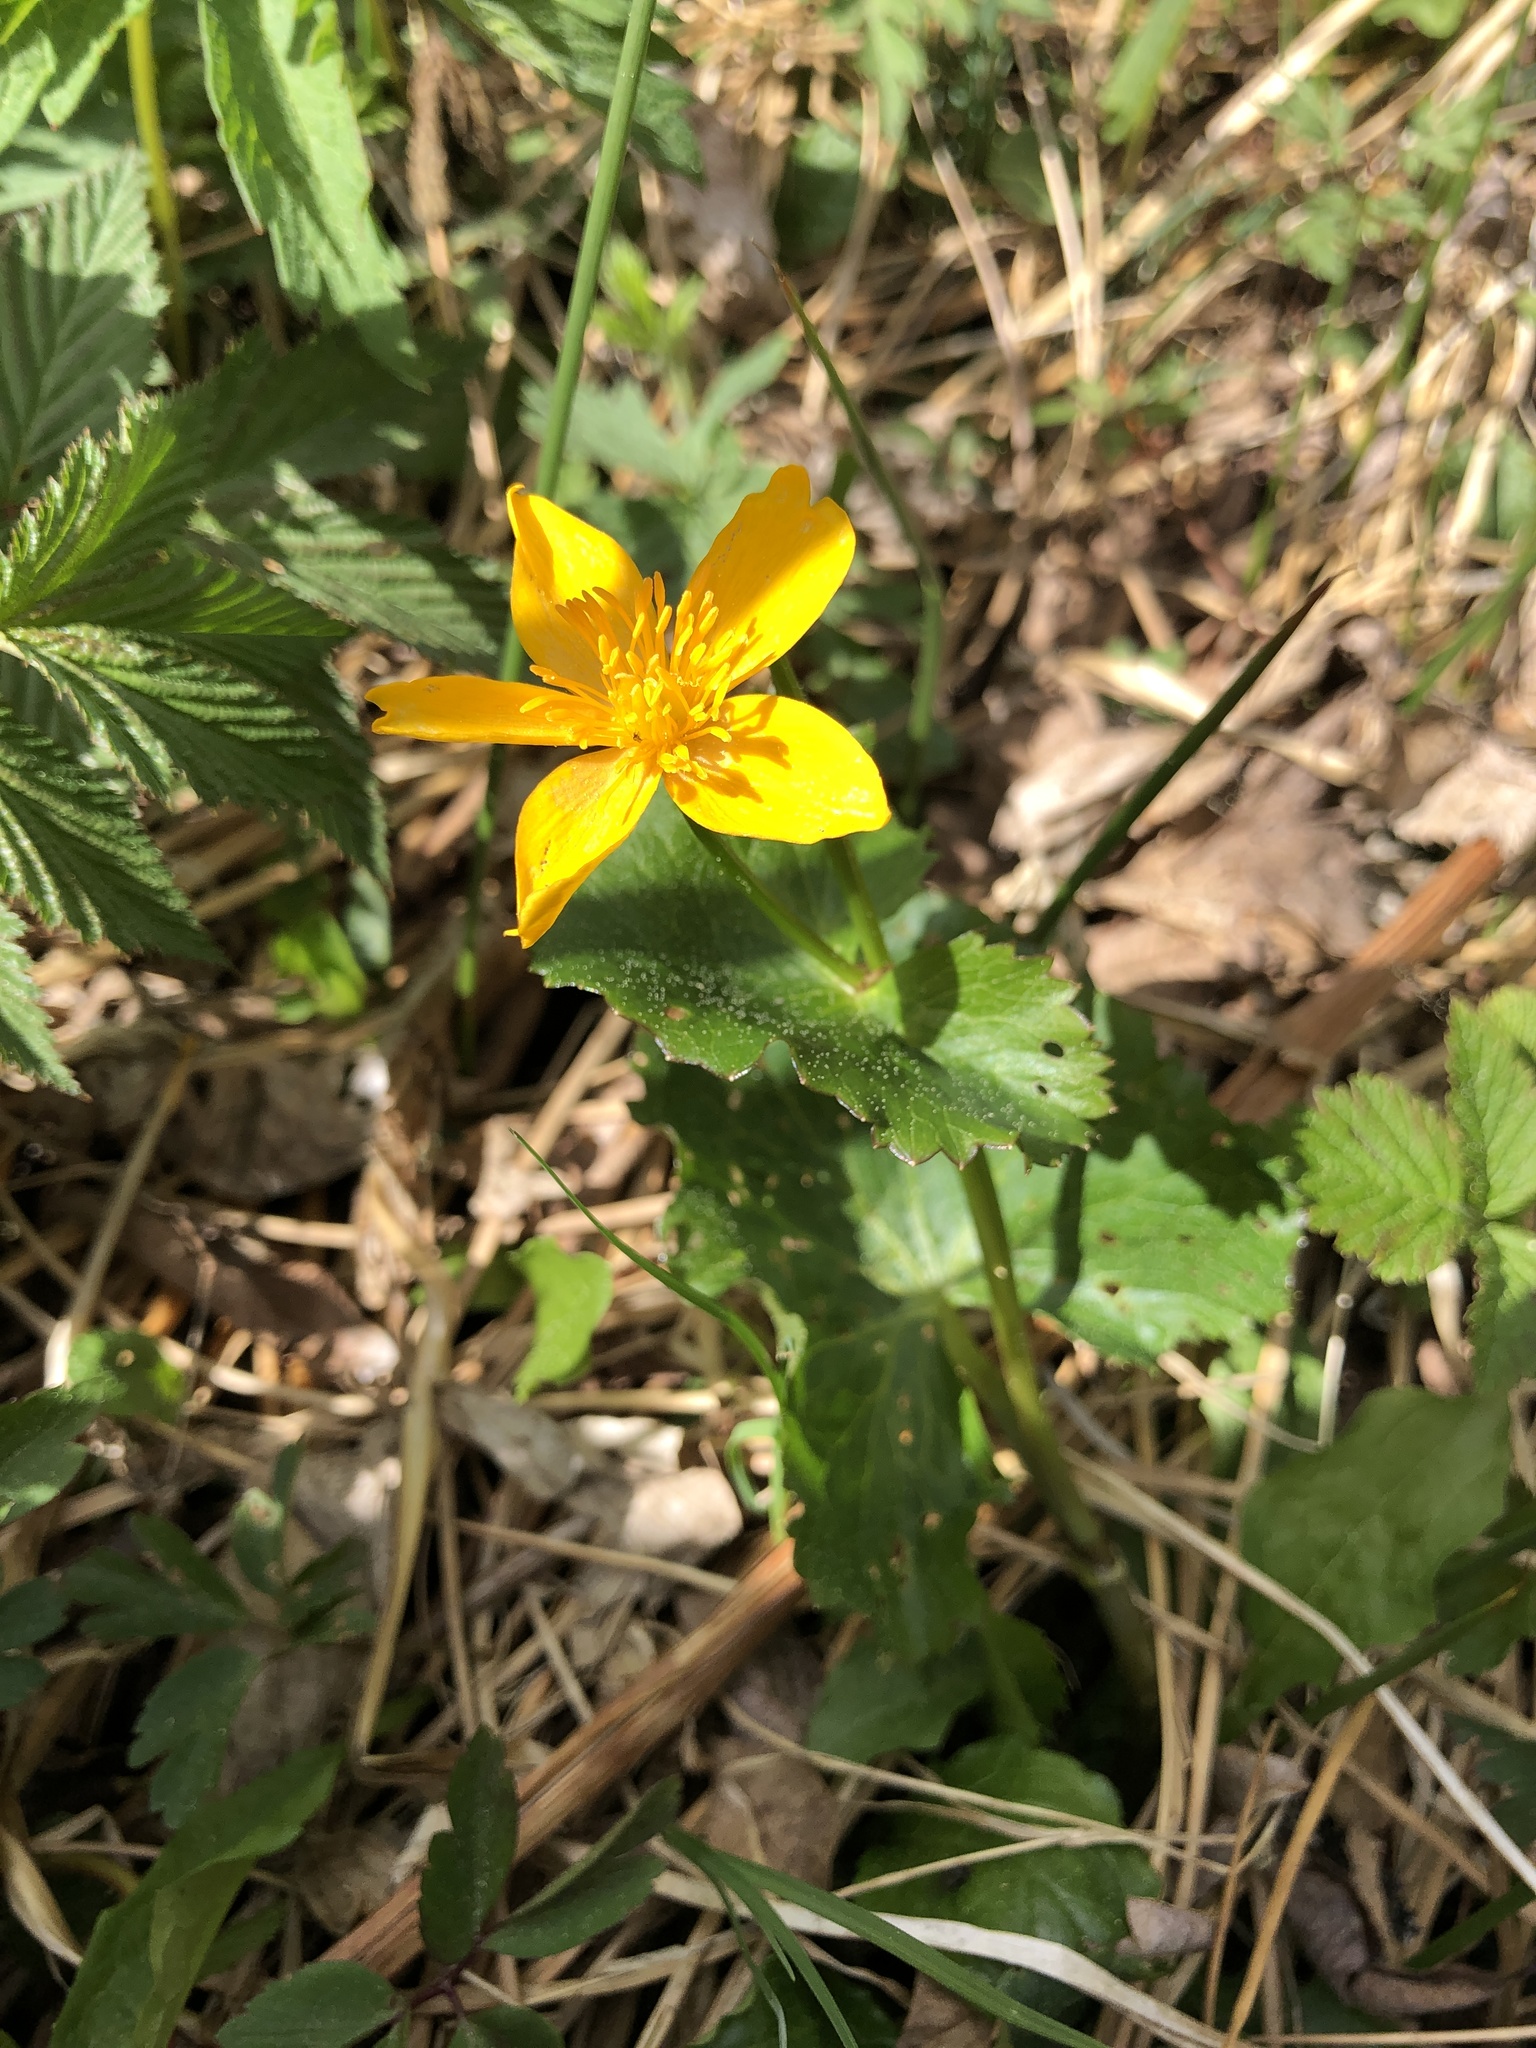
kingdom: Plantae
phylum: Tracheophyta
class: Magnoliopsida
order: Ranunculales
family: Ranunculaceae
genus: Caltha
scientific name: Caltha palustris
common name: Marsh marigold
